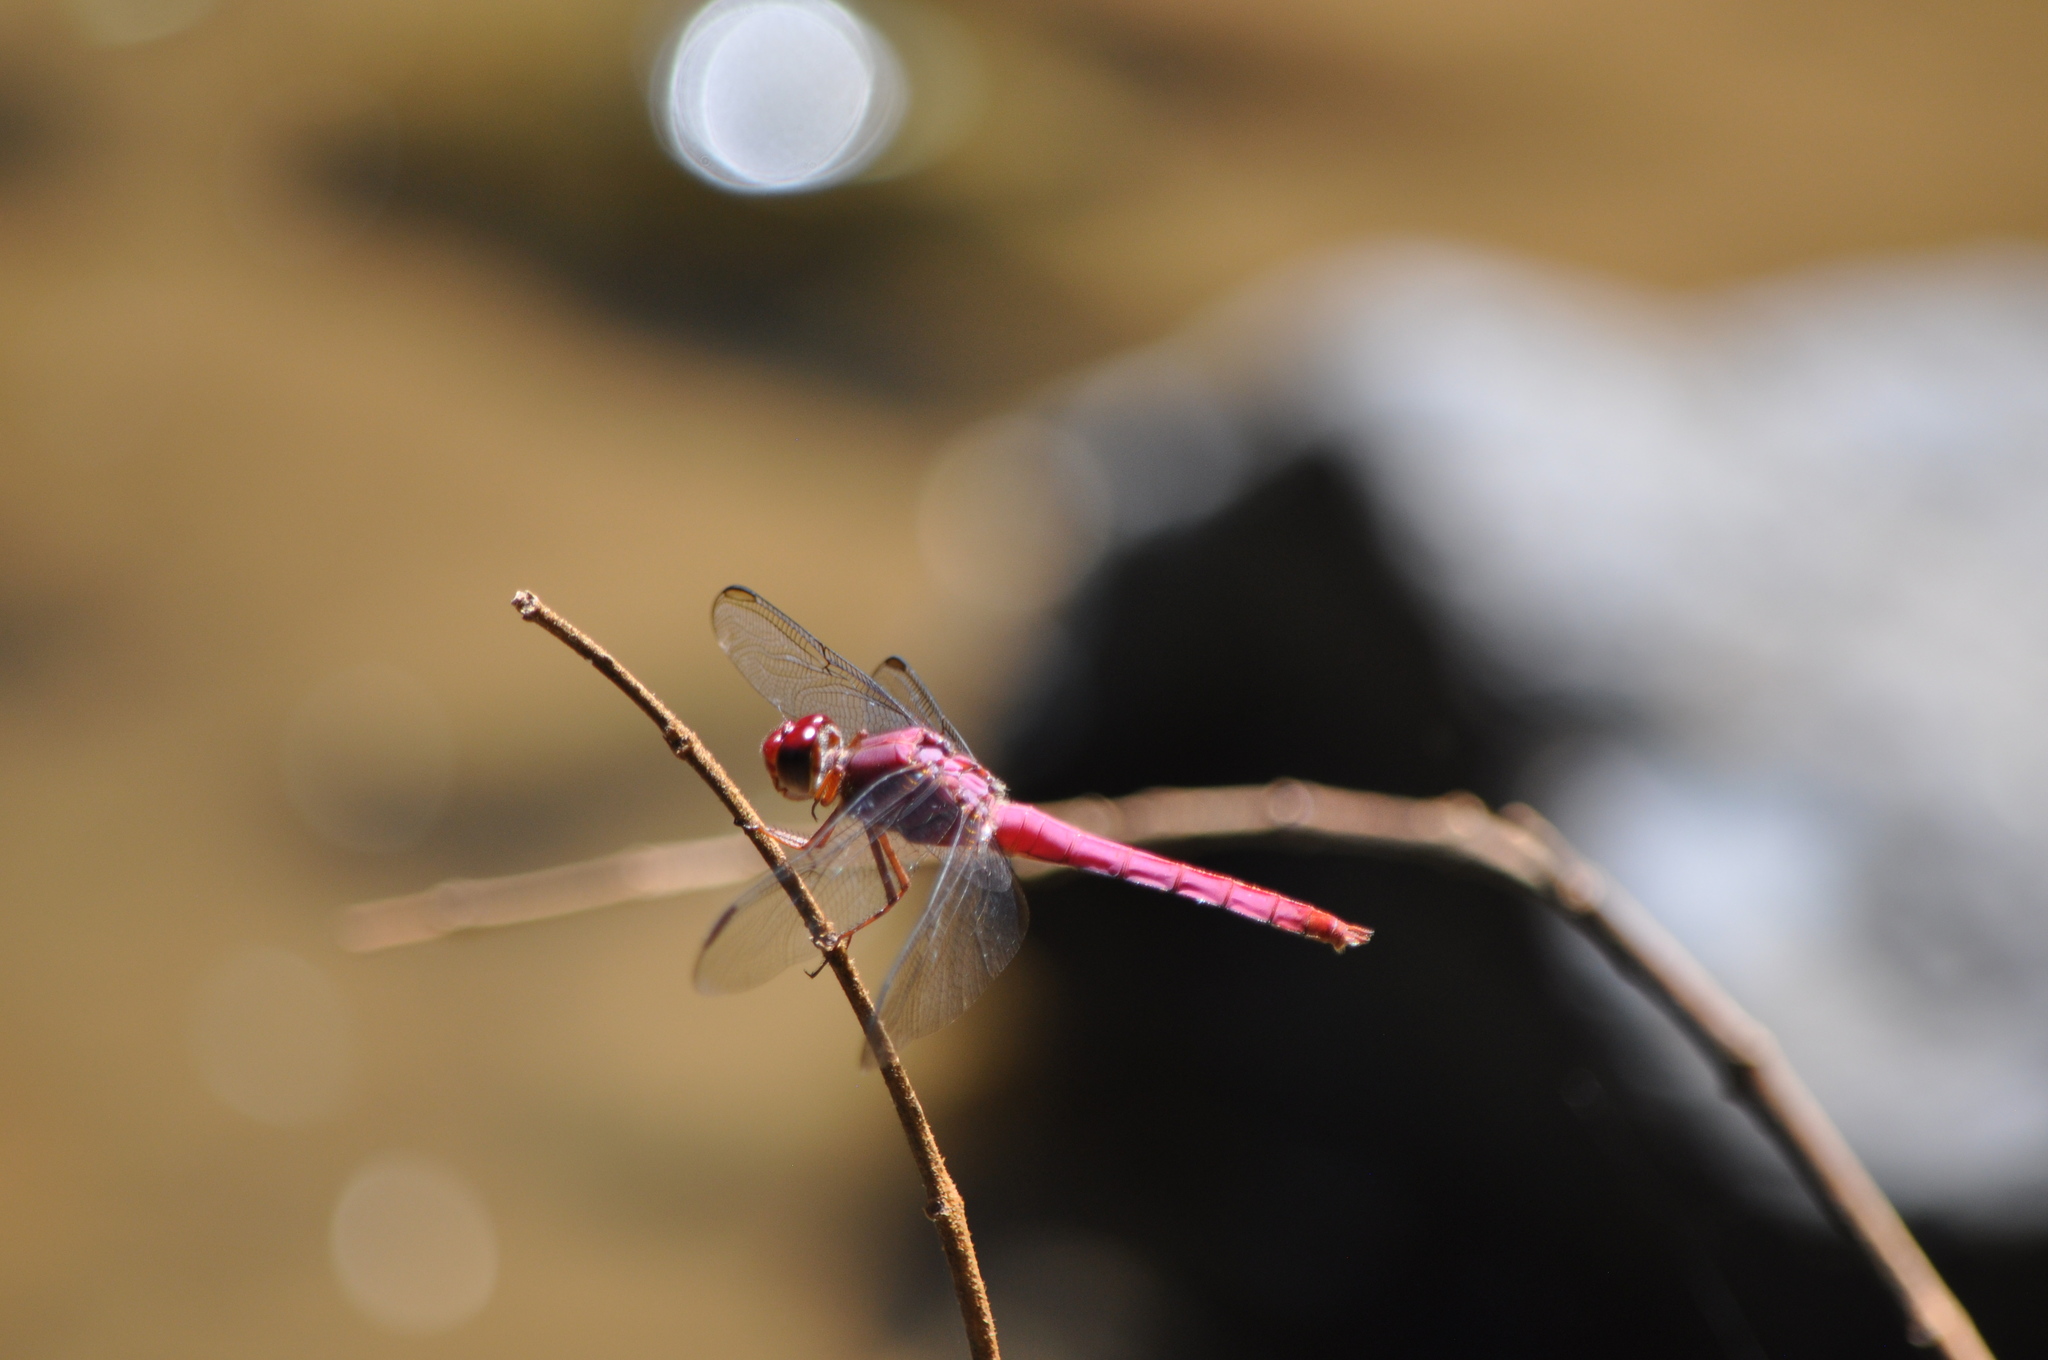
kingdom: Animalia
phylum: Arthropoda
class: Insecta
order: Odonata
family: Libellulidae
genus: Orthemis
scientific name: Orthemis discolor
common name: Carmine skimmer
